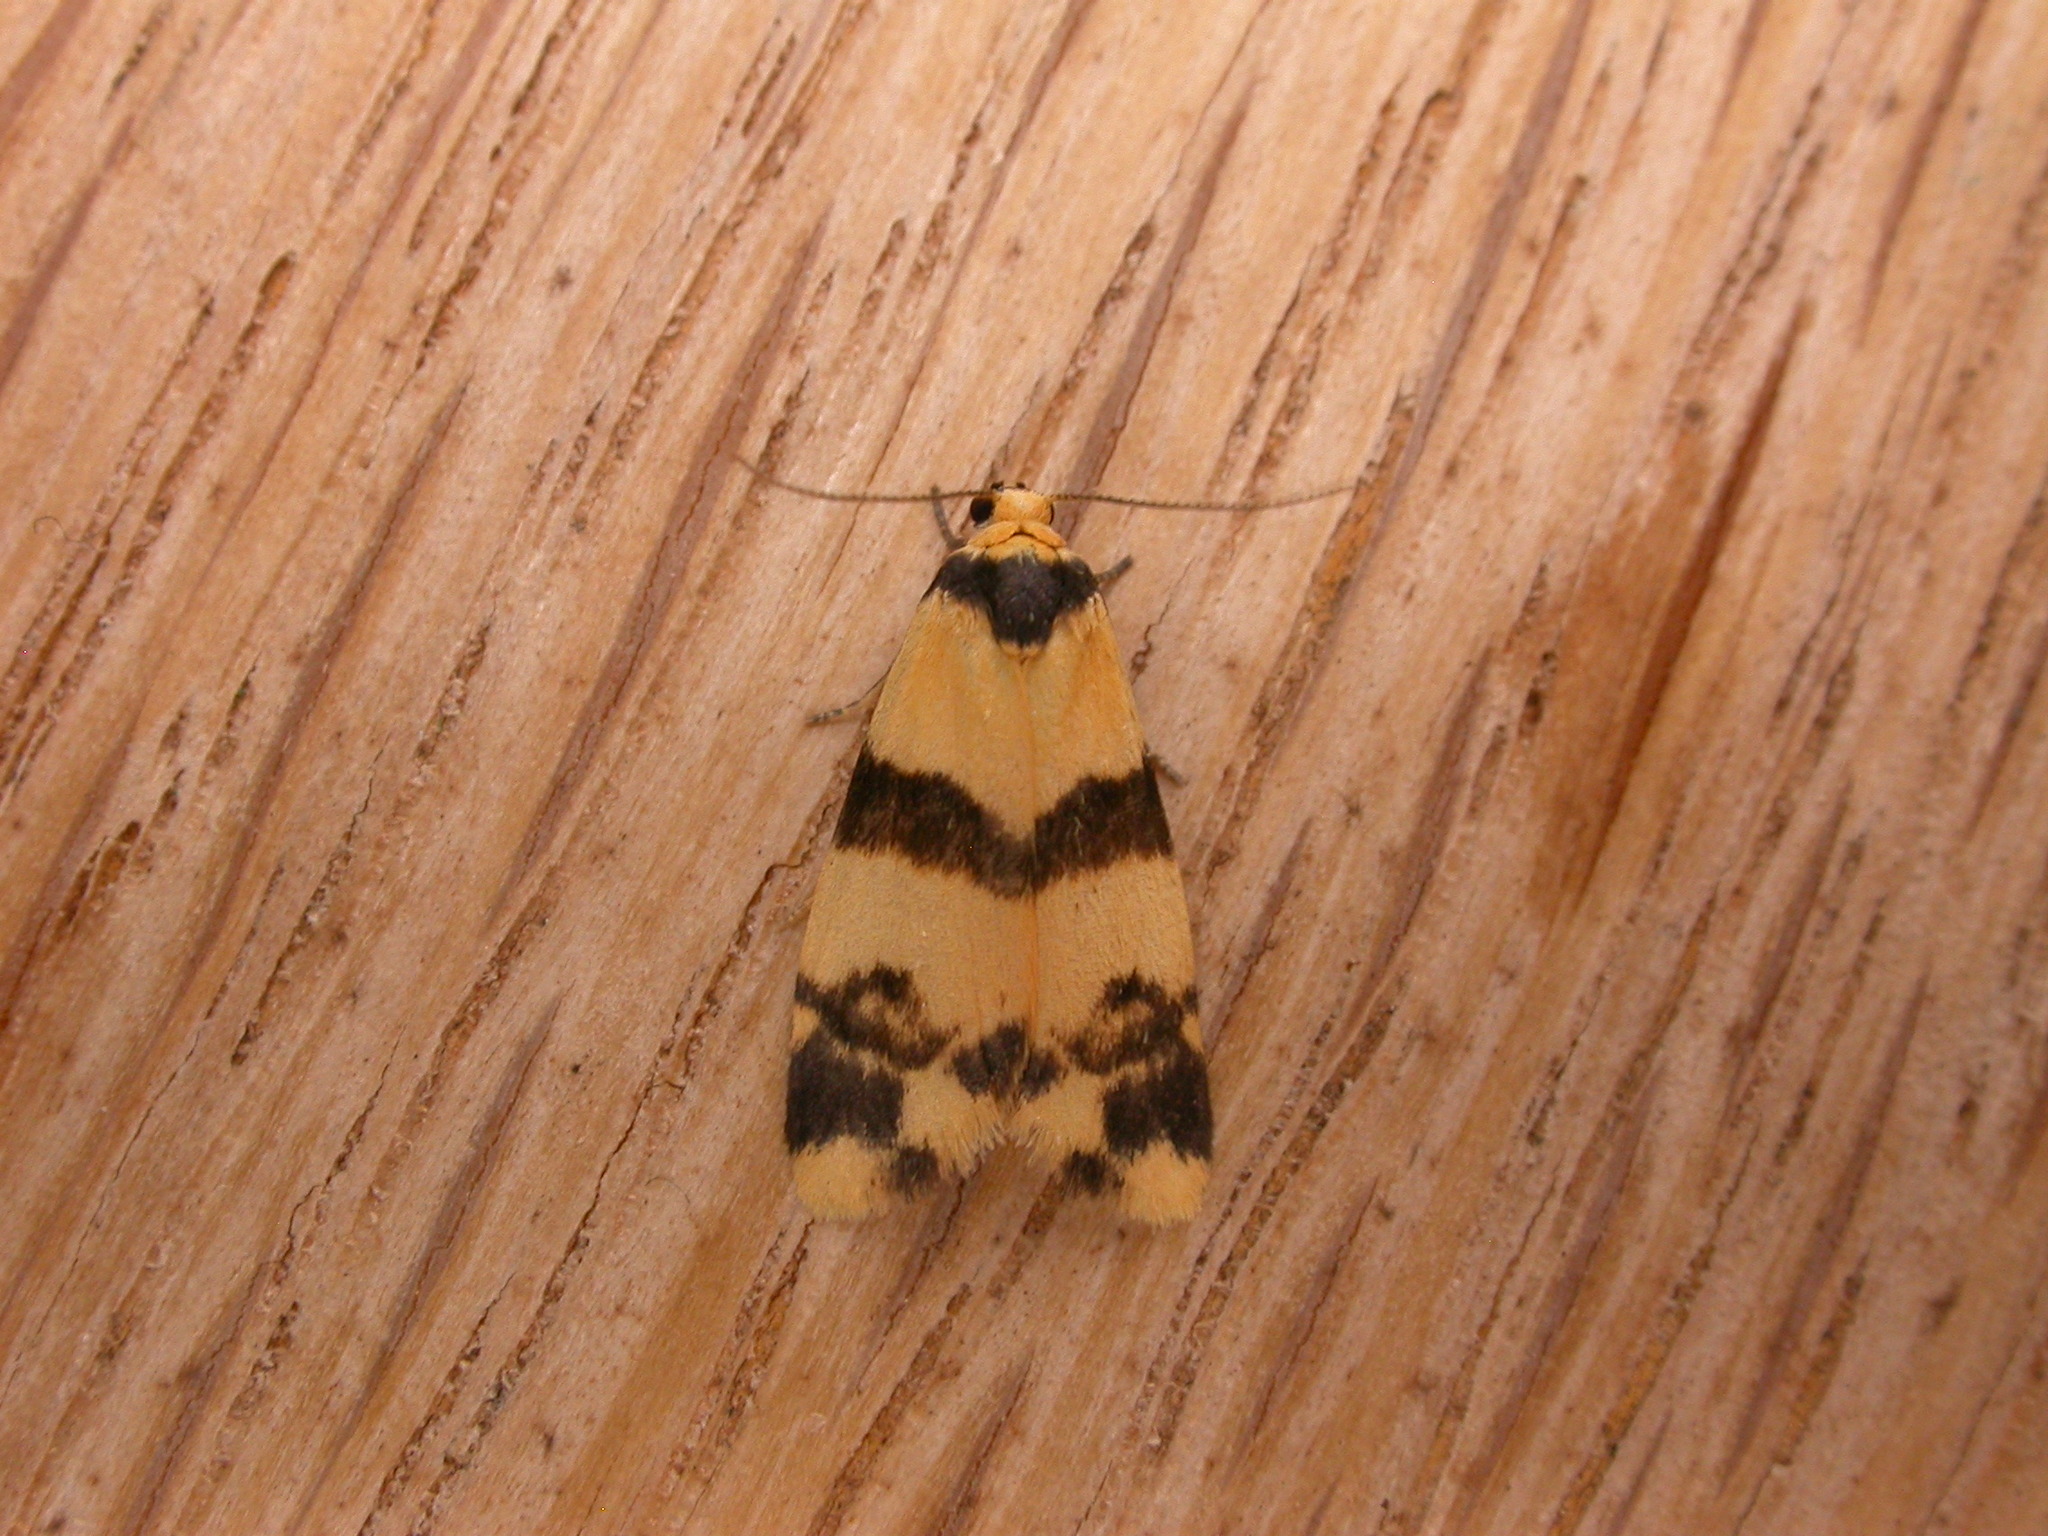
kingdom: Animalia
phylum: Arthropoda
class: Insecta
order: Lepidoptera
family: Erebidae
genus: Thallarcha
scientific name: Thallarcha chrysochares
